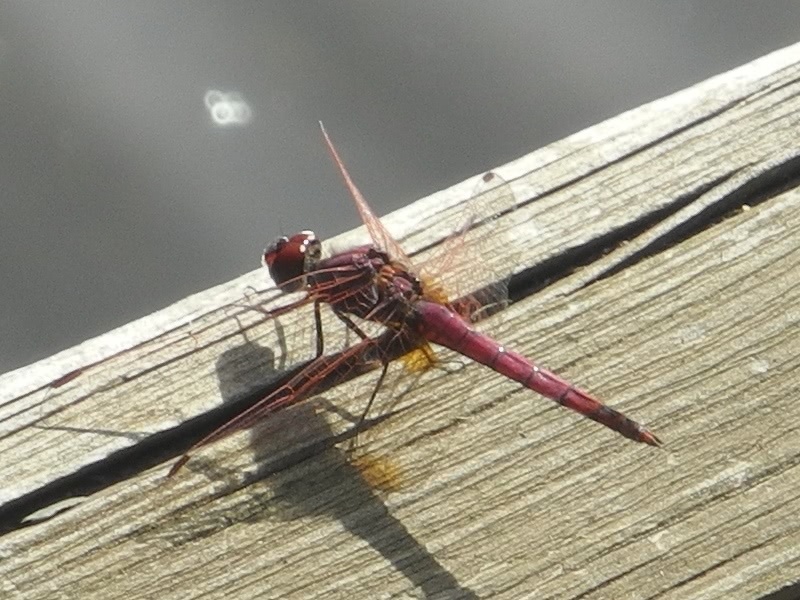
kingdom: Animalia
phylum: Arthropoda
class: Insecta
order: Odonata
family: Libellulidae
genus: Trithemis
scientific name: Trithemis annulata
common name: Violet dropwing
